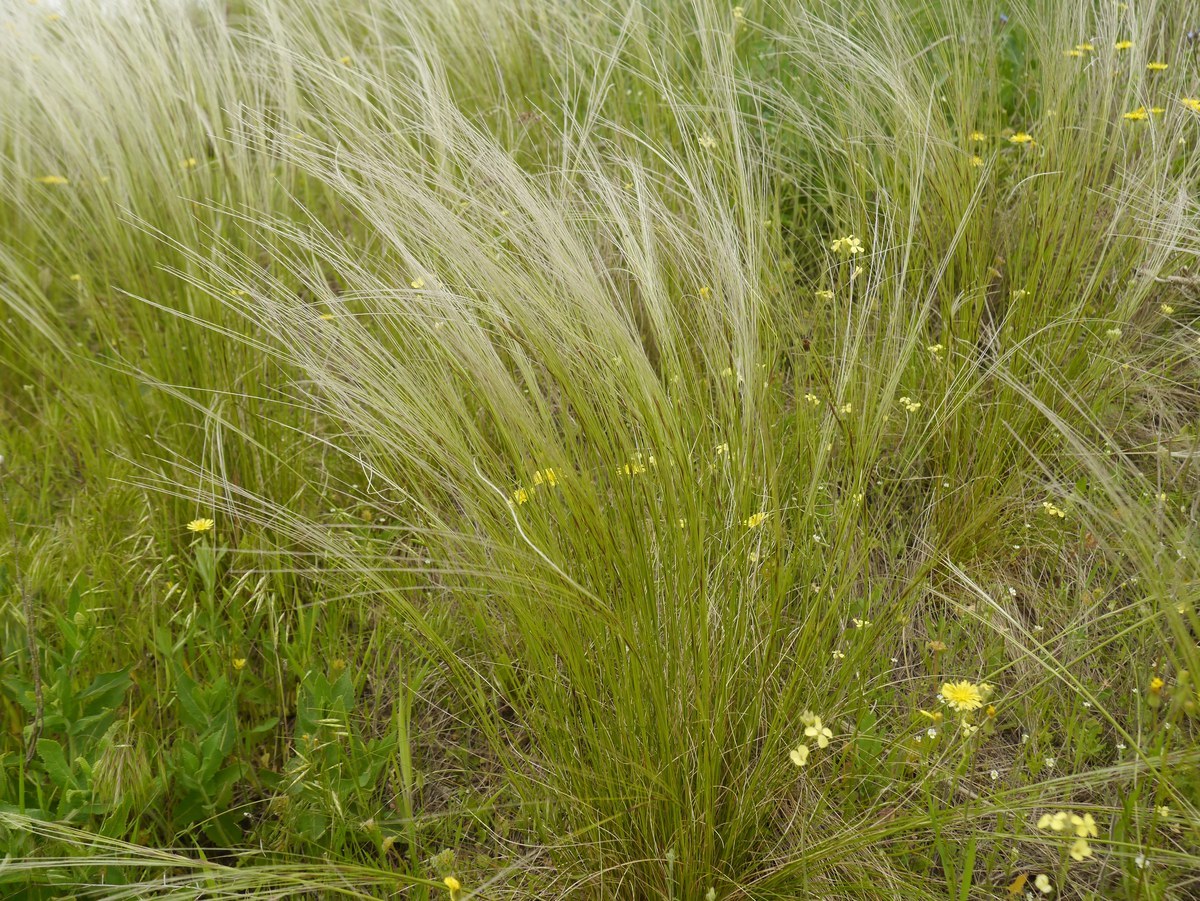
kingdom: Plantae
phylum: Tracheophyta
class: Liliopsida
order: Poales
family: Poaceae
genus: Stipa
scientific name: Stipa lessingiana
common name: Needle grass
